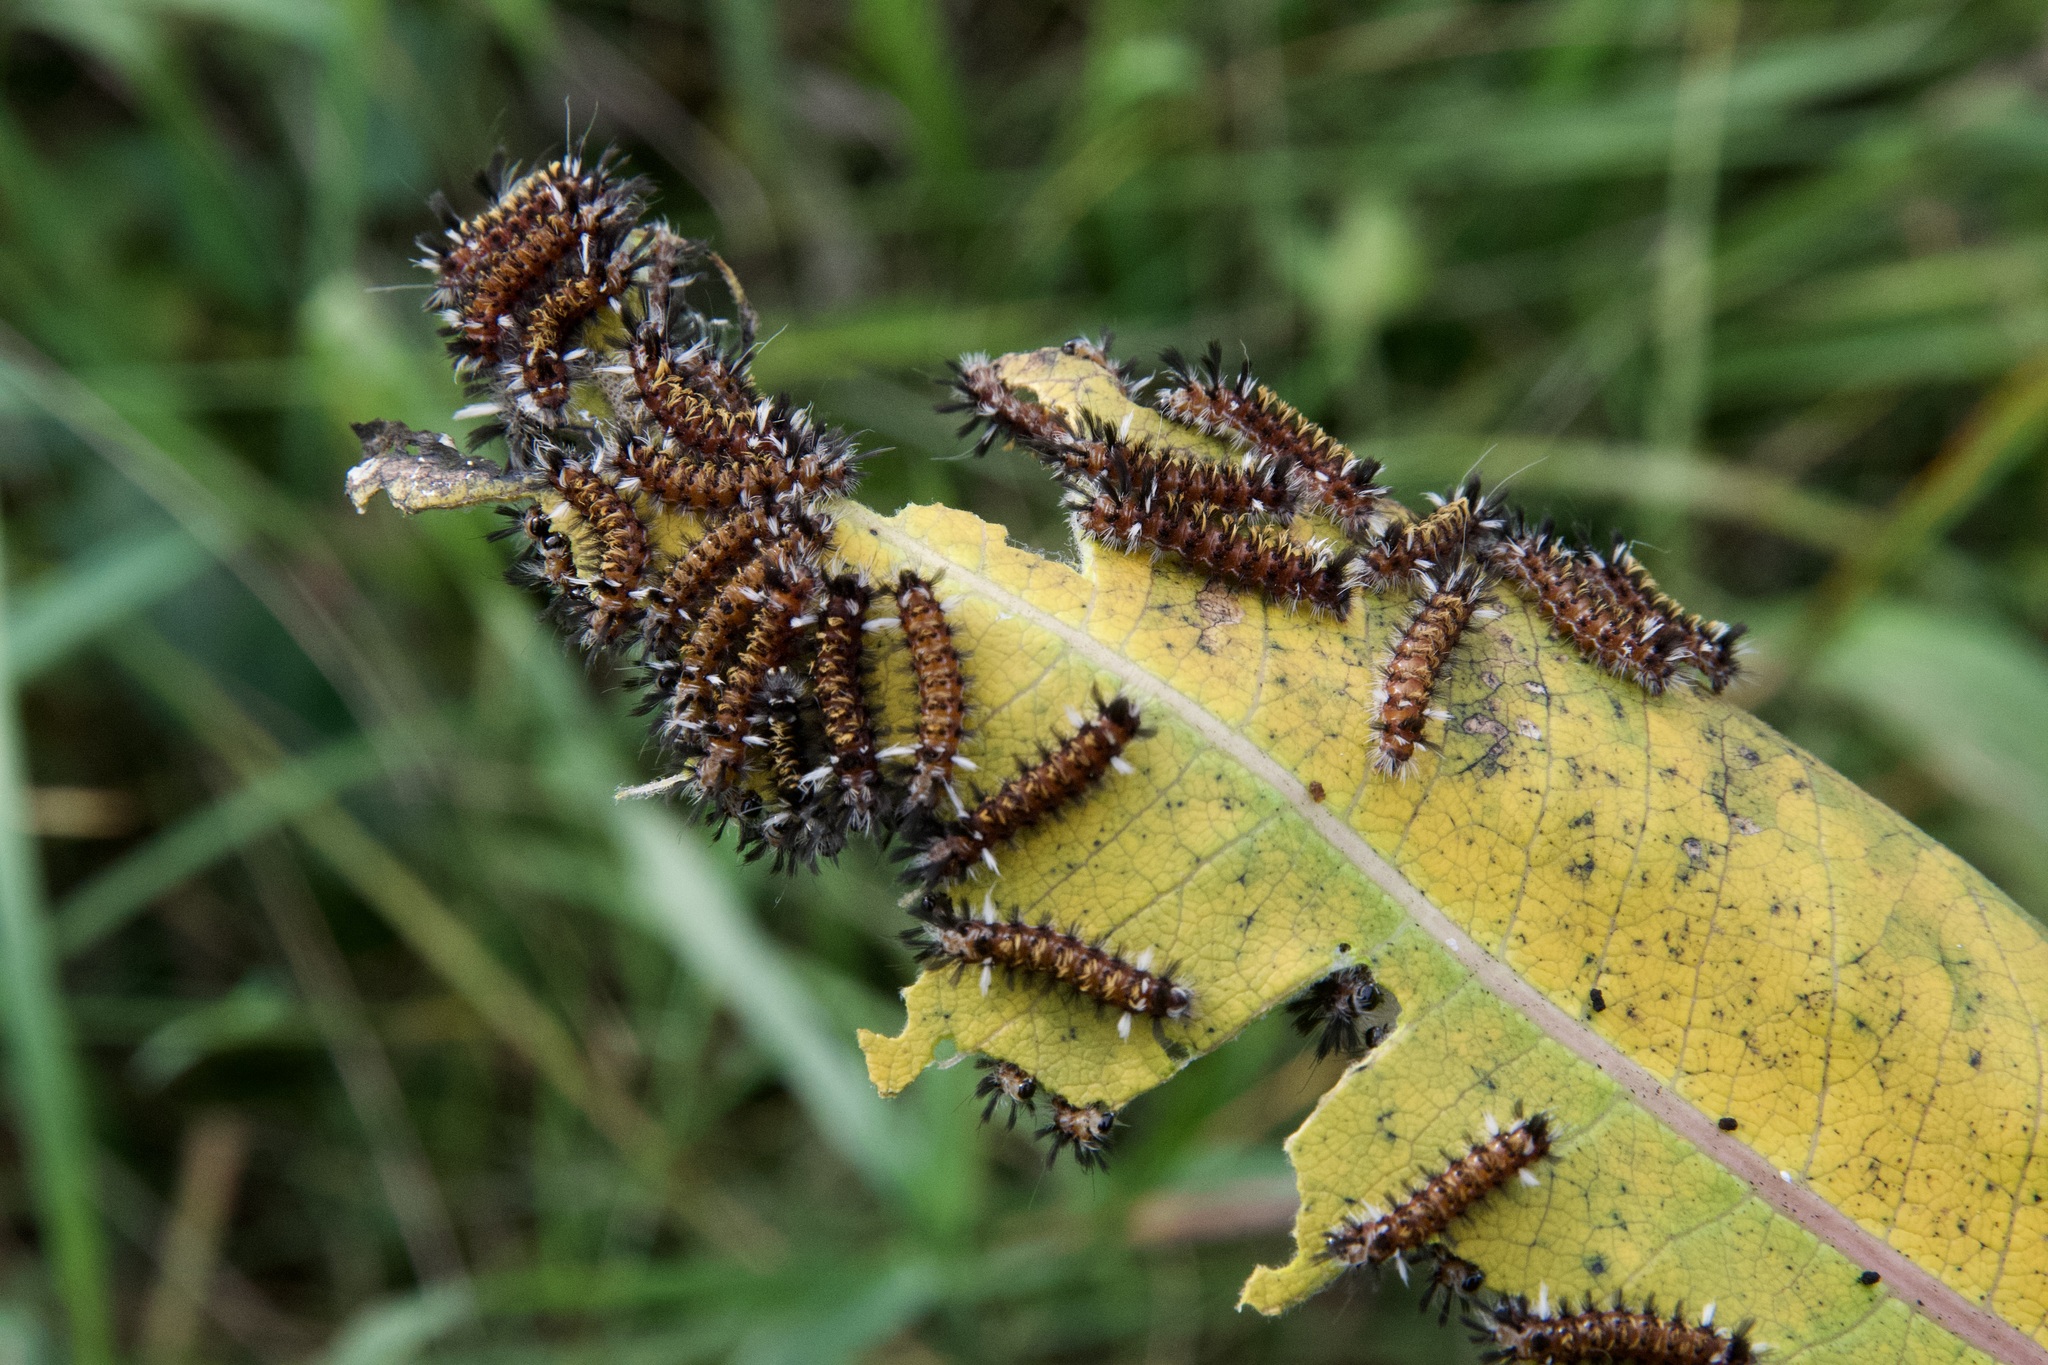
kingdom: Animalia
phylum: Arthropoda
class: Insecta
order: Lepidoptera
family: Erebidae
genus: Euchaetes
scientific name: Euchaetes egle
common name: Milkweed tussock moth
